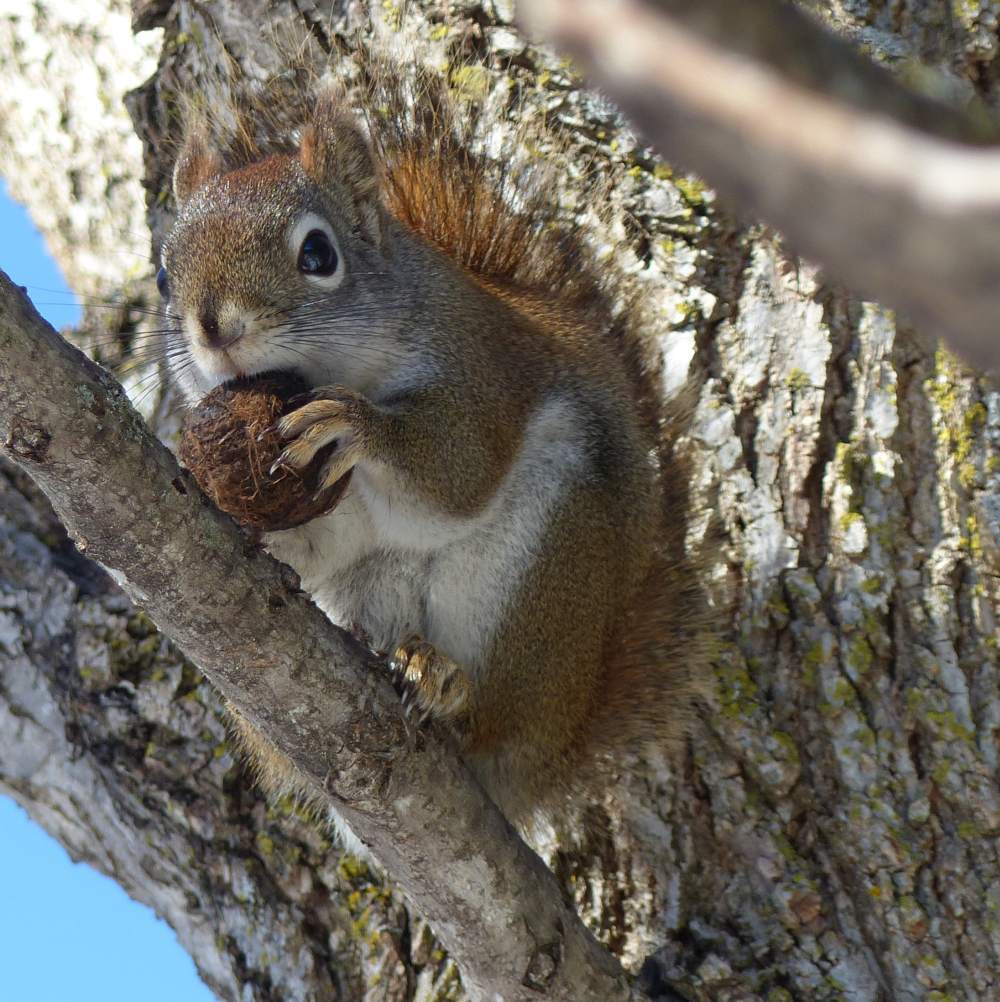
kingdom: Animalia
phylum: Chordata
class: Mammalia
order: Rodentia
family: Sciuridae
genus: Tamiasciurus
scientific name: Tamiasciurus hudsonicus
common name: Red squirrel
